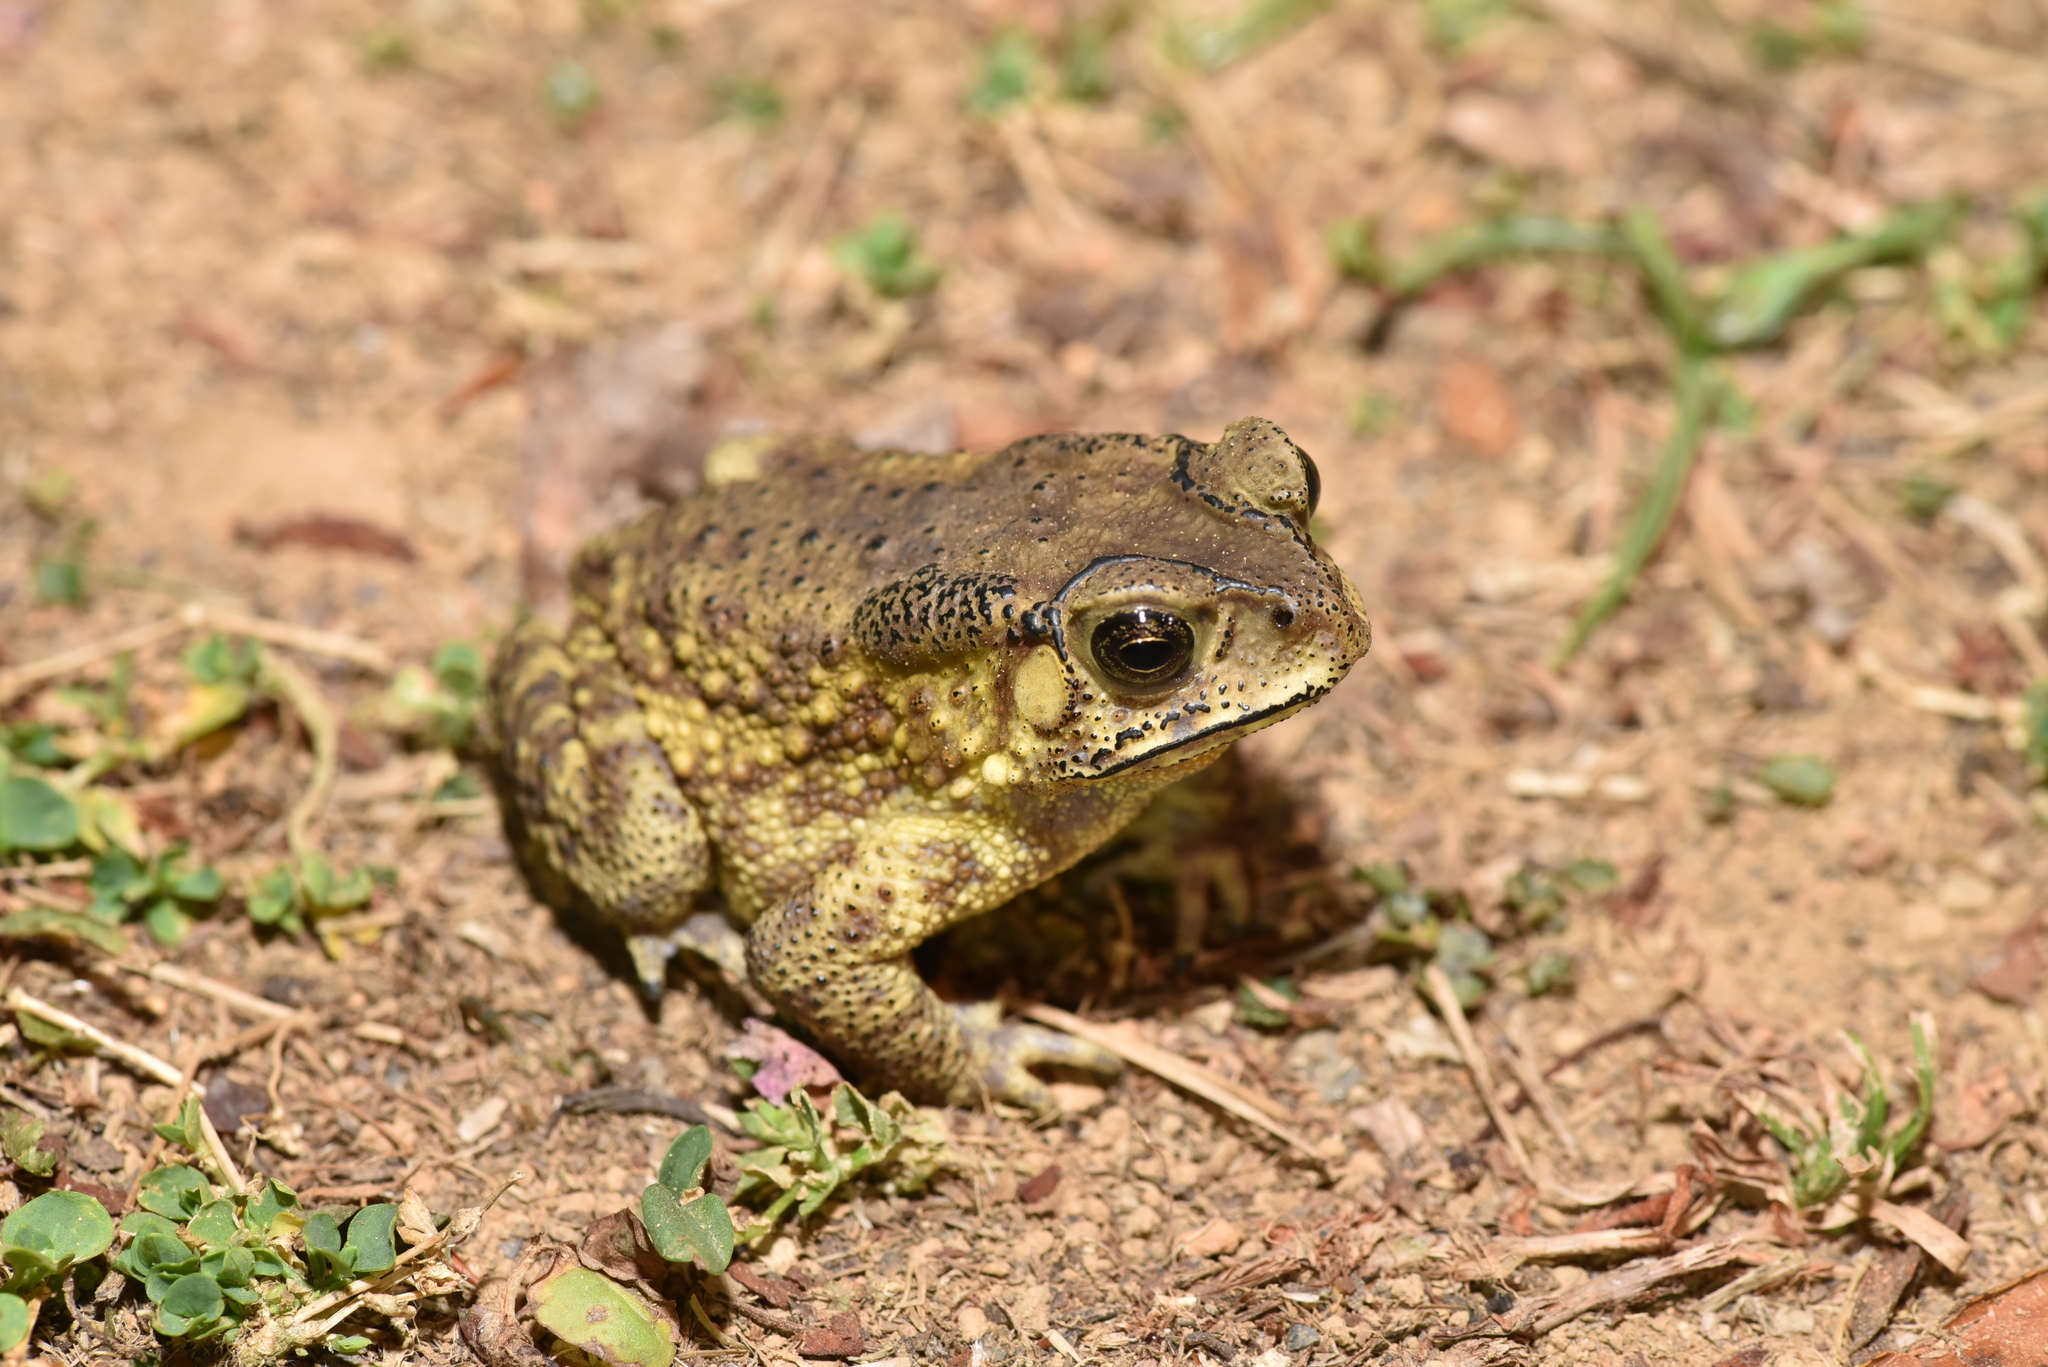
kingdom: Animalia
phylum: Chordata
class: Amphibia
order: Anura
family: Bufonidae
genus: Duttaphrynus
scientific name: Duttaphrynus melanostictus
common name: Common sunda toad
